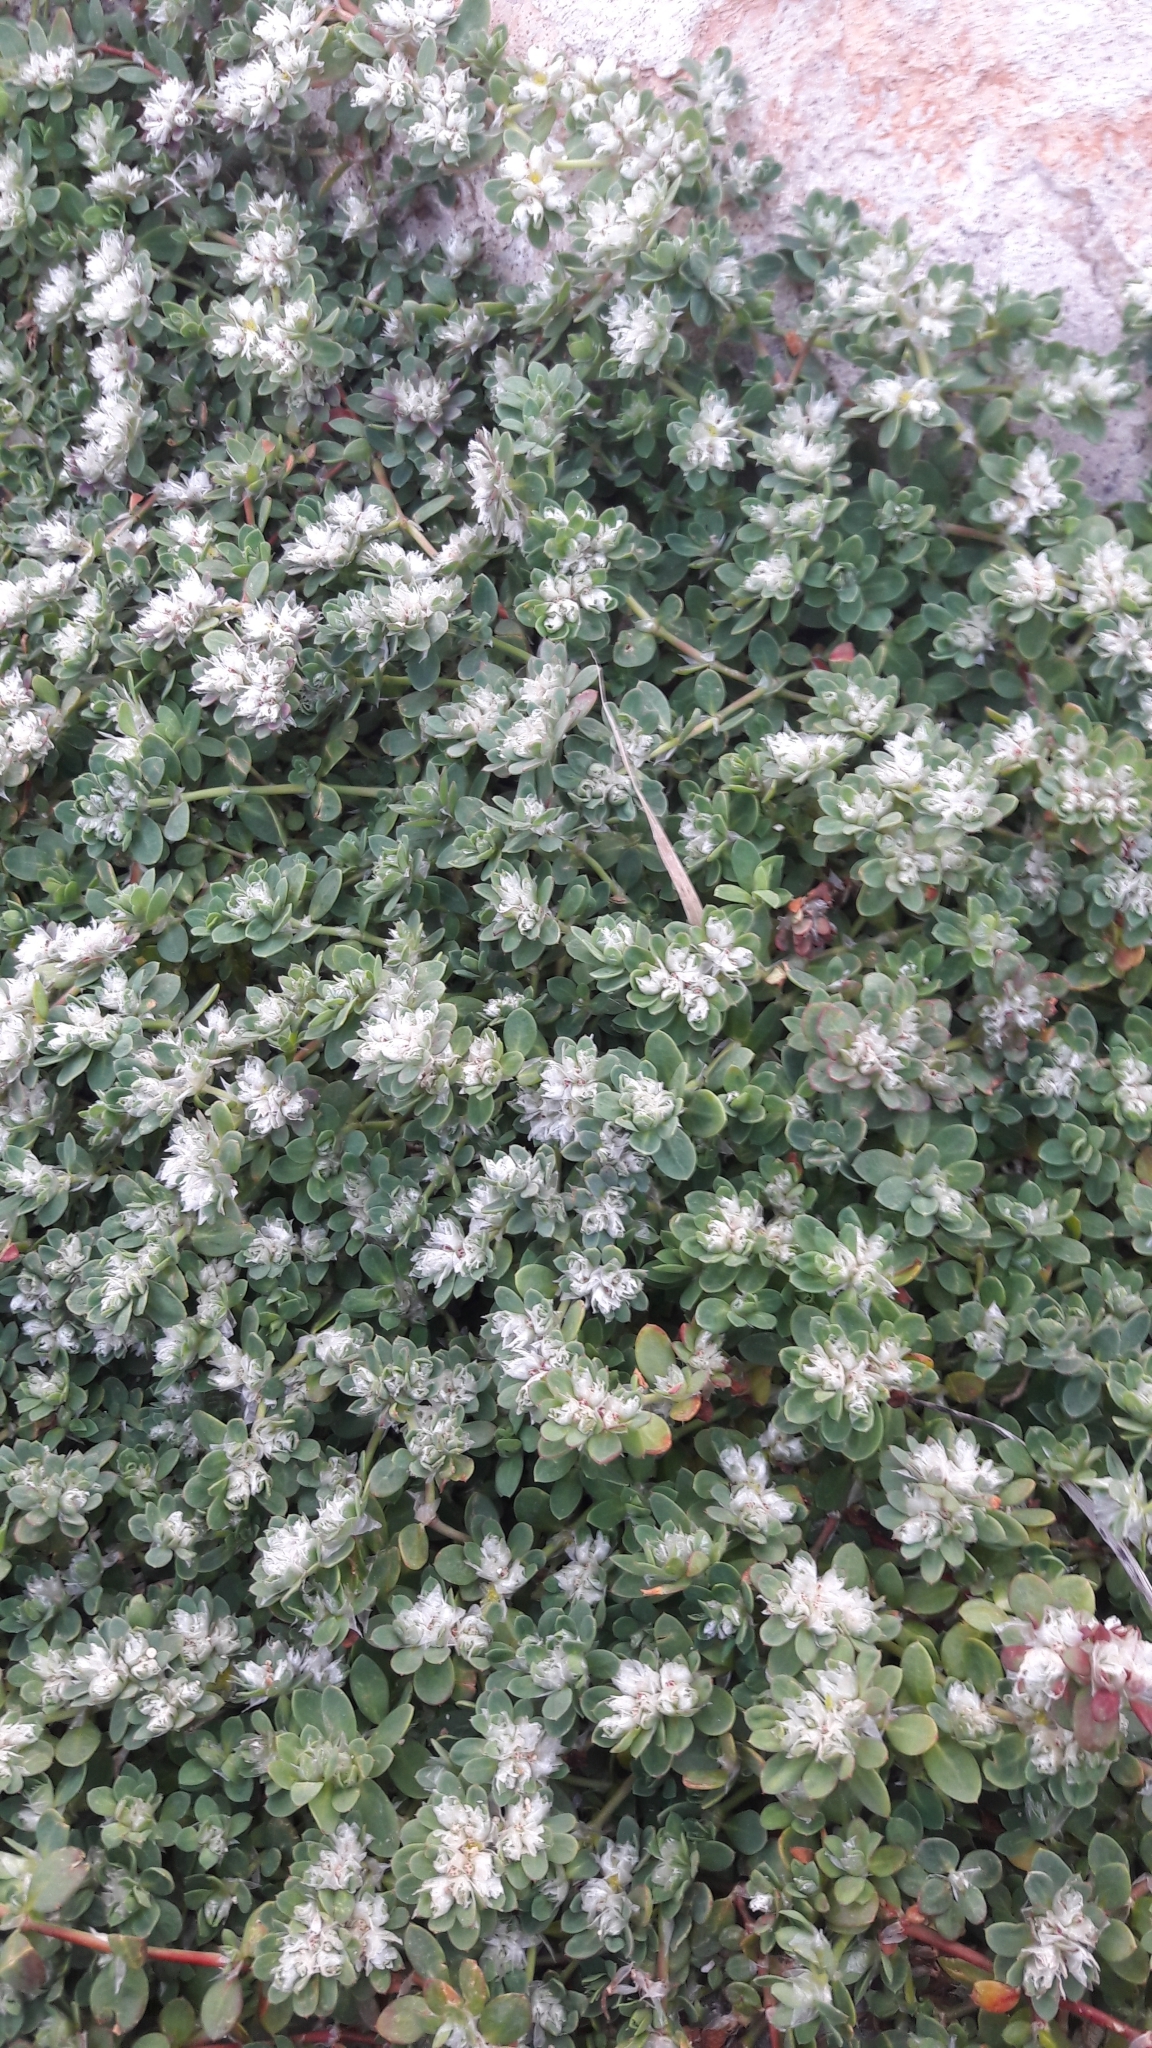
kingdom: Plantae
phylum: Tracheophyta
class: Magnoliopsida
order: Caryophyllales
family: Caryophyllaceae
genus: Paronychia
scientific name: Paronychia argentea
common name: Silver nailroot
